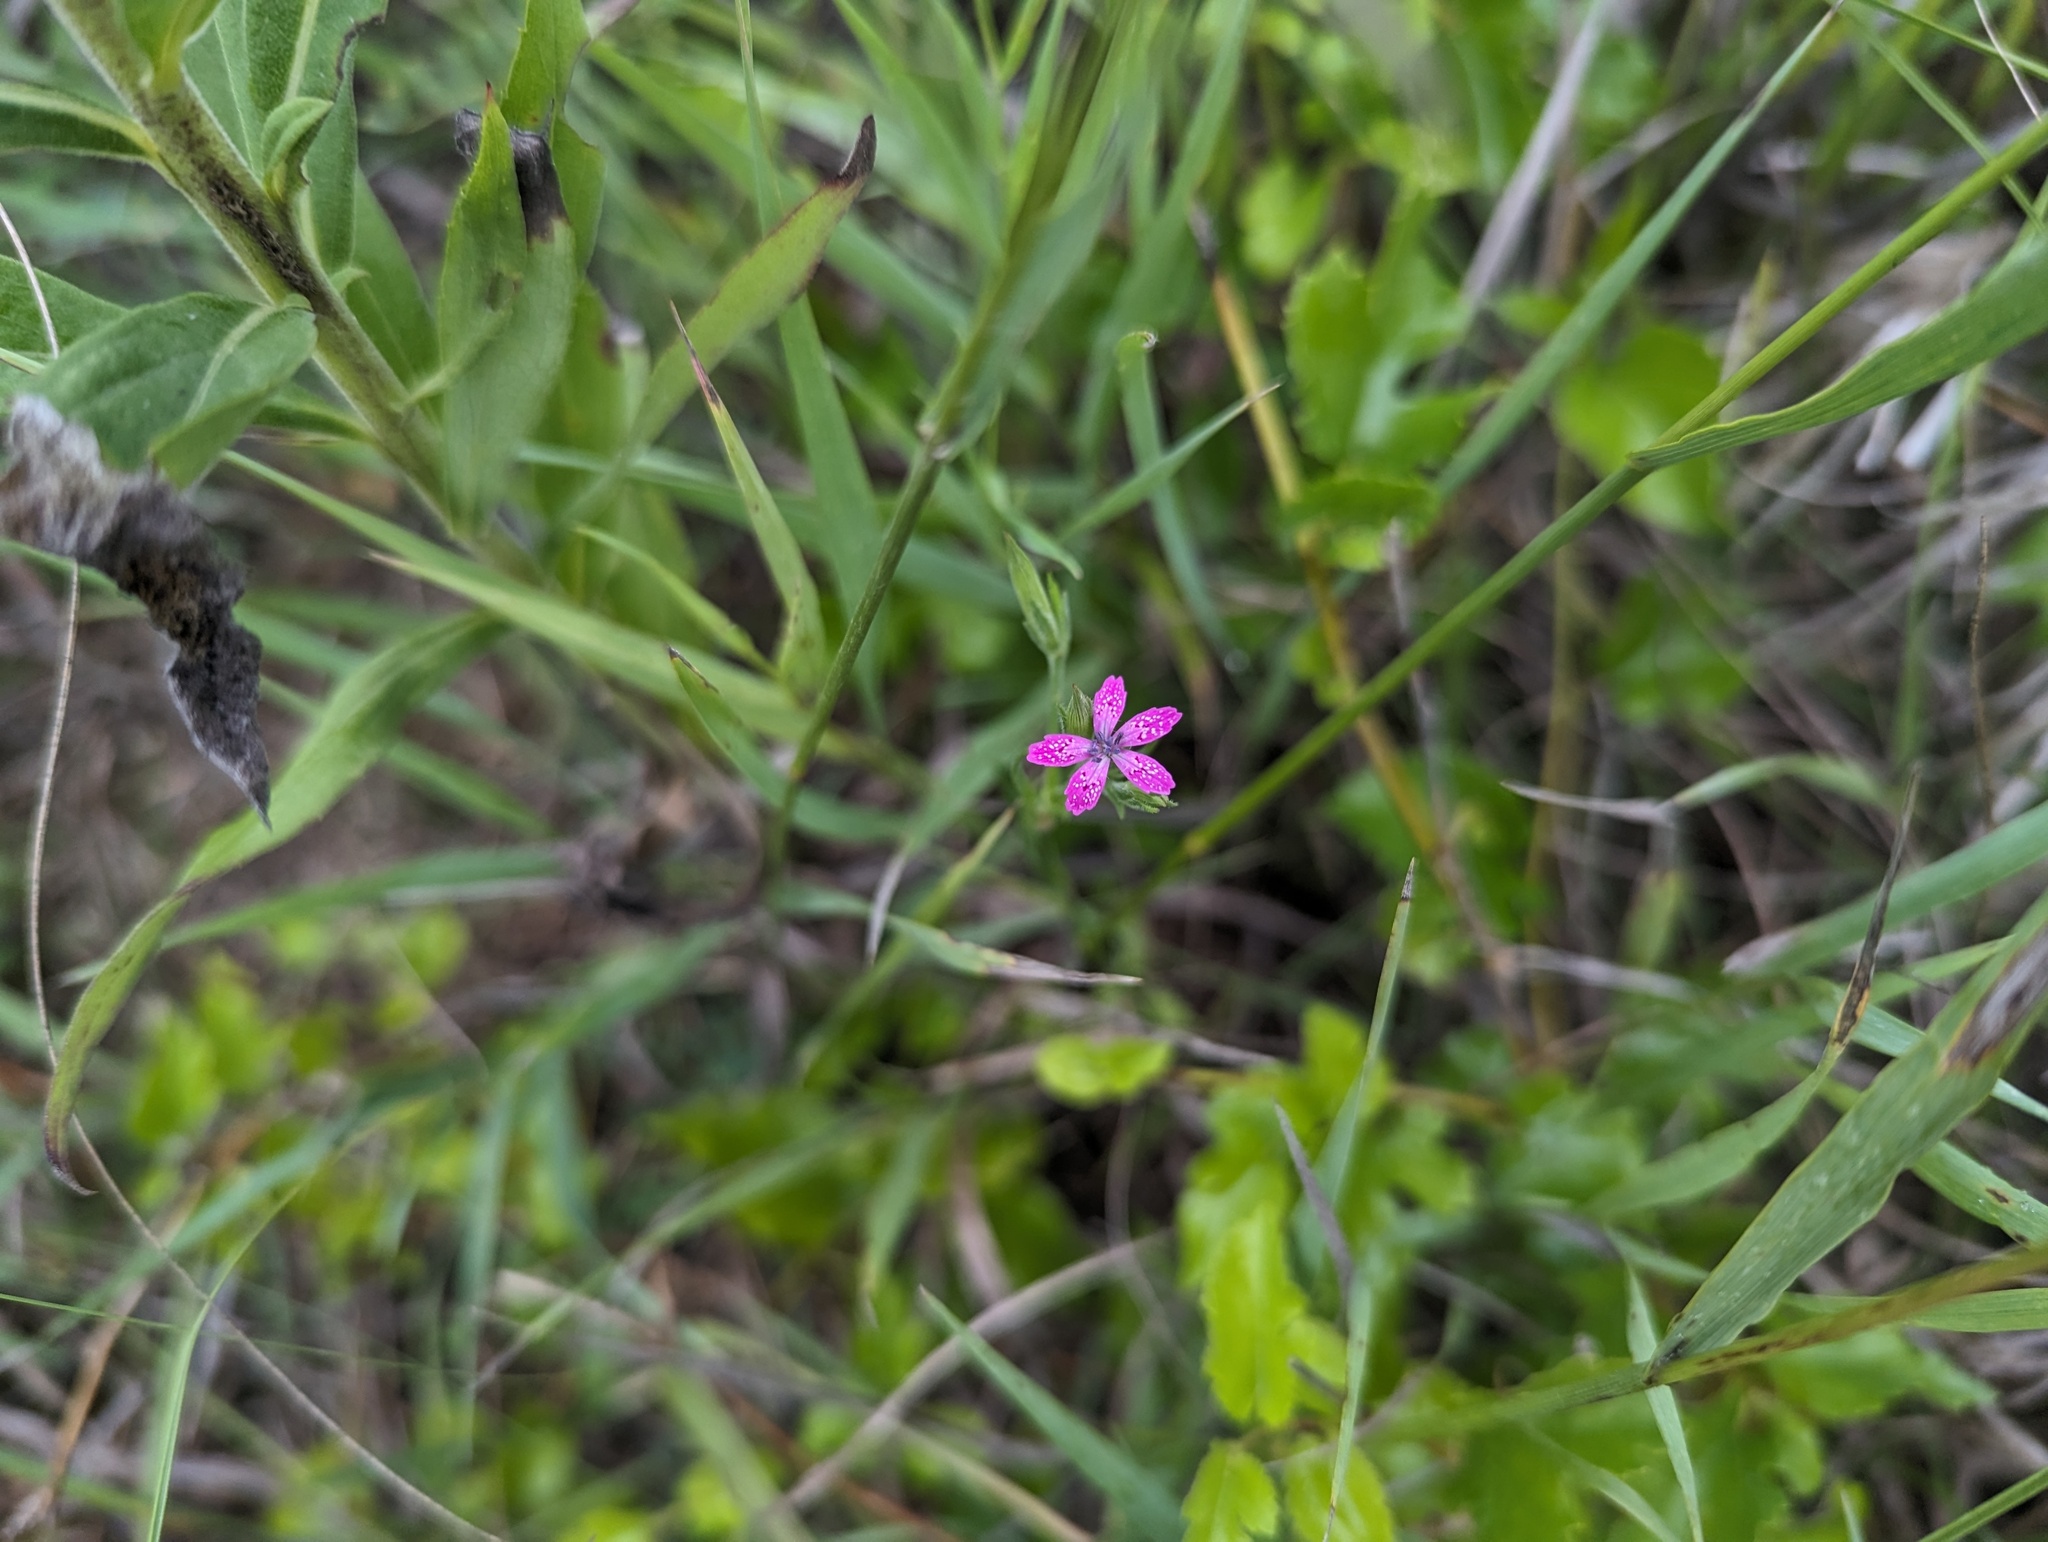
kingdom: Plantae
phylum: Tracheophyta
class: Magnoliopsida
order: Caryophyllales
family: Caryophyllaceae
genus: Dianthus
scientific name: Dianthus armeria
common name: Deptford pink
